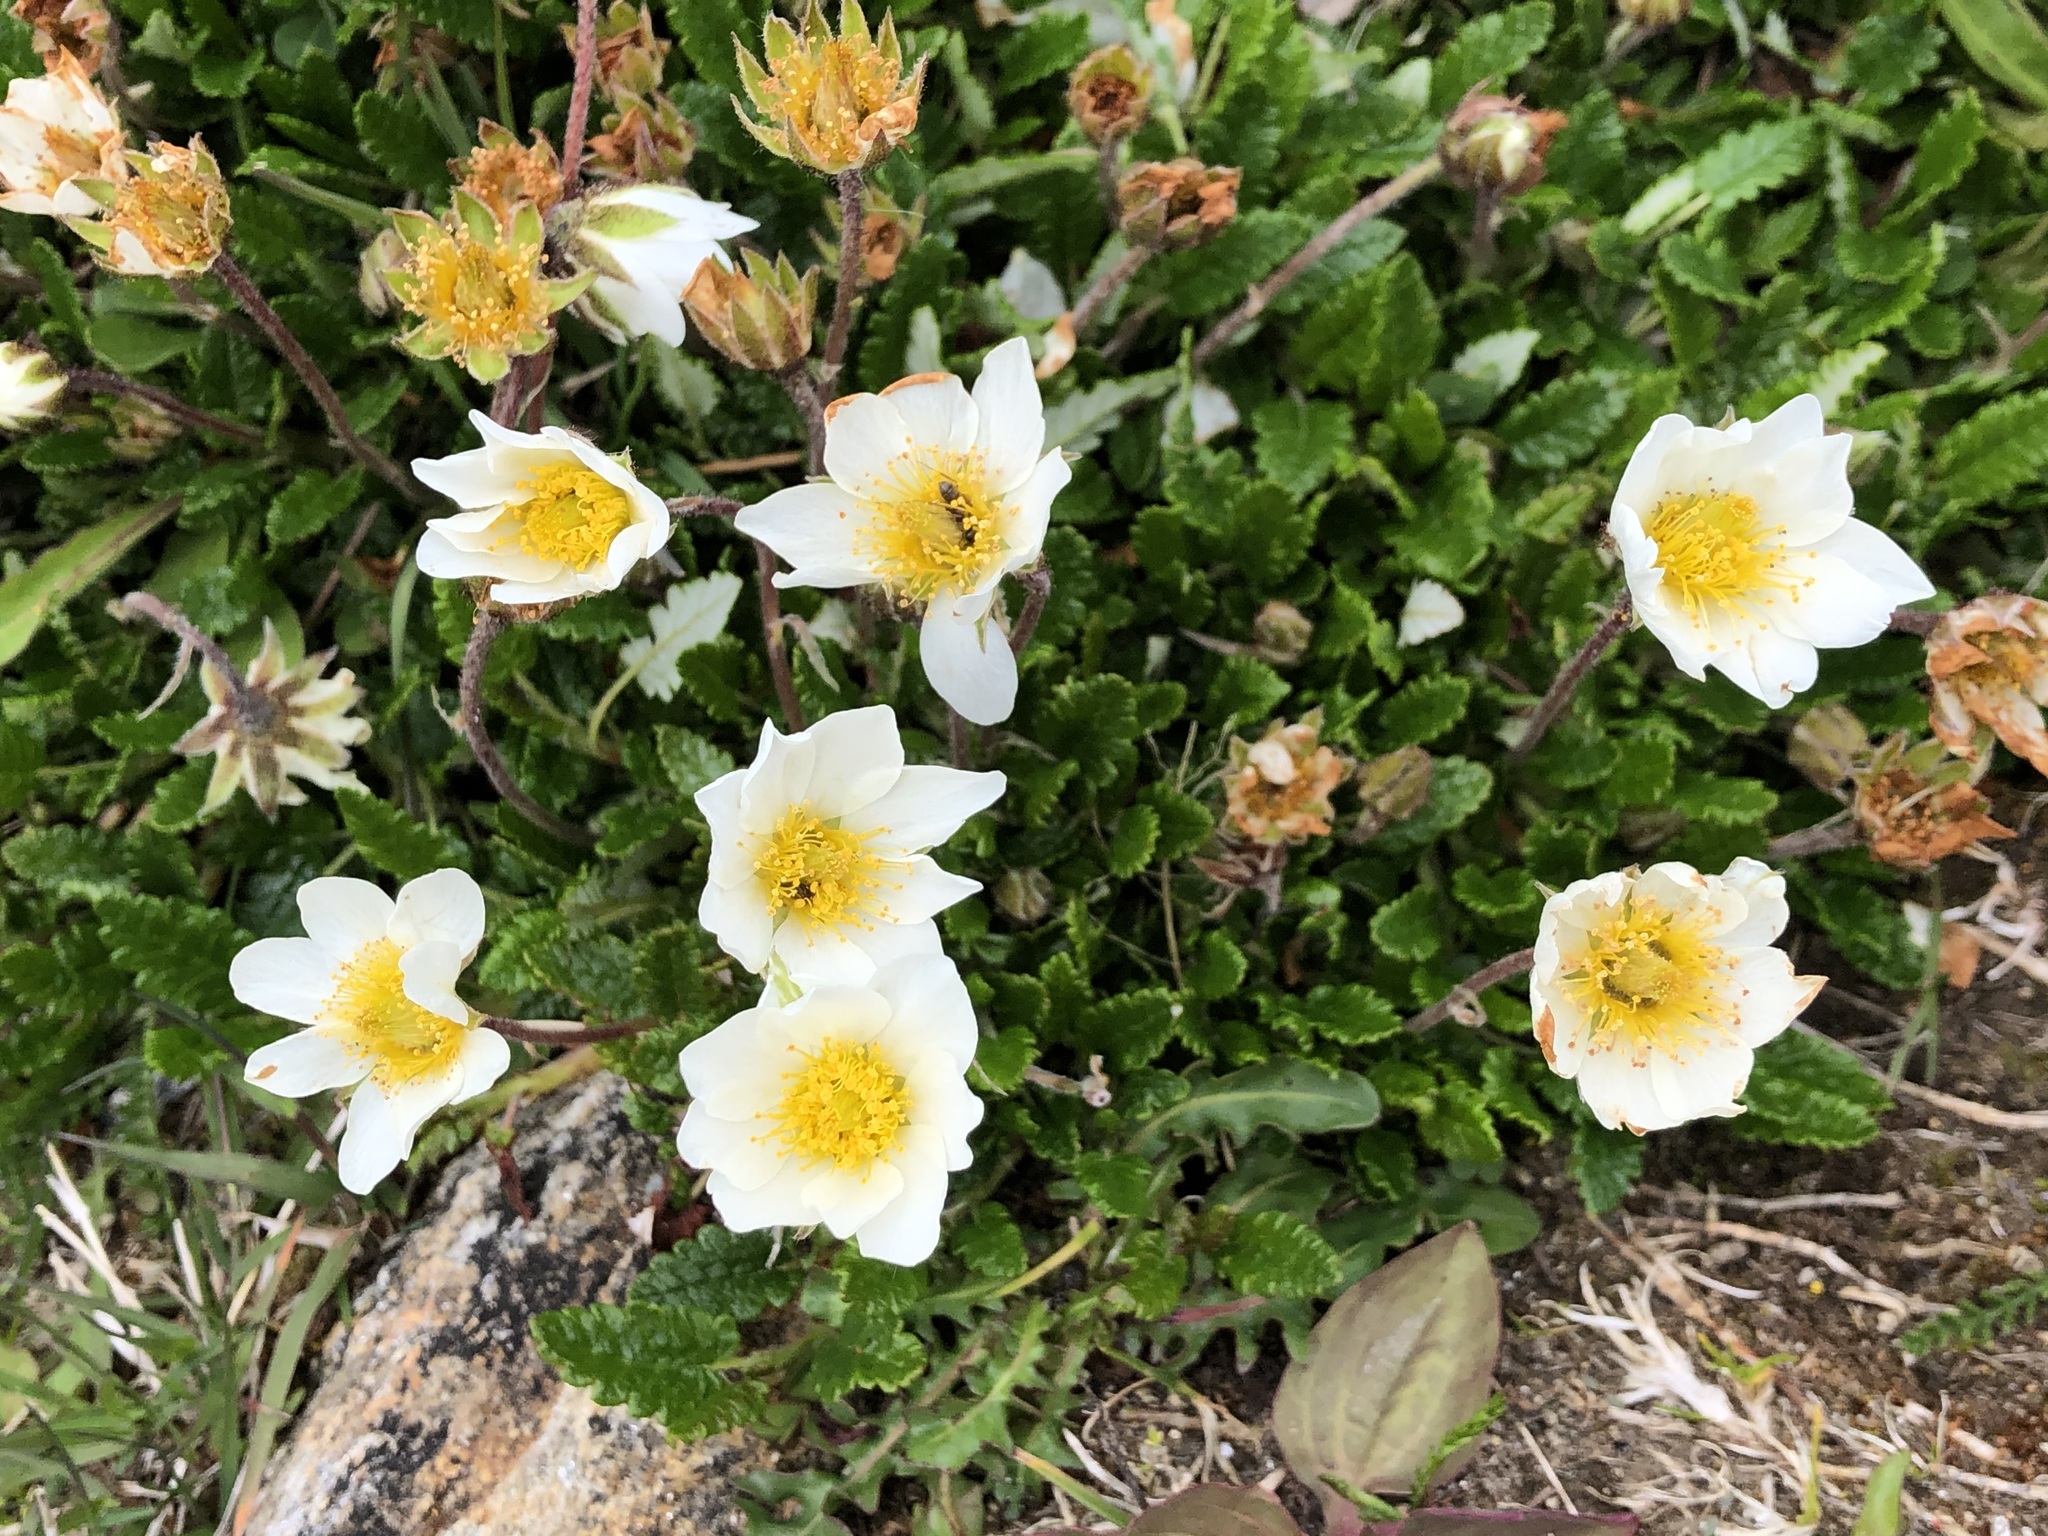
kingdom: Plantae
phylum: Tracheophyta
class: Magnoliopsida
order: Rosales
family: Rosaceae
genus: Dryas
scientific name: Dryas octopetala
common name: Eight-petal mountain-avens
